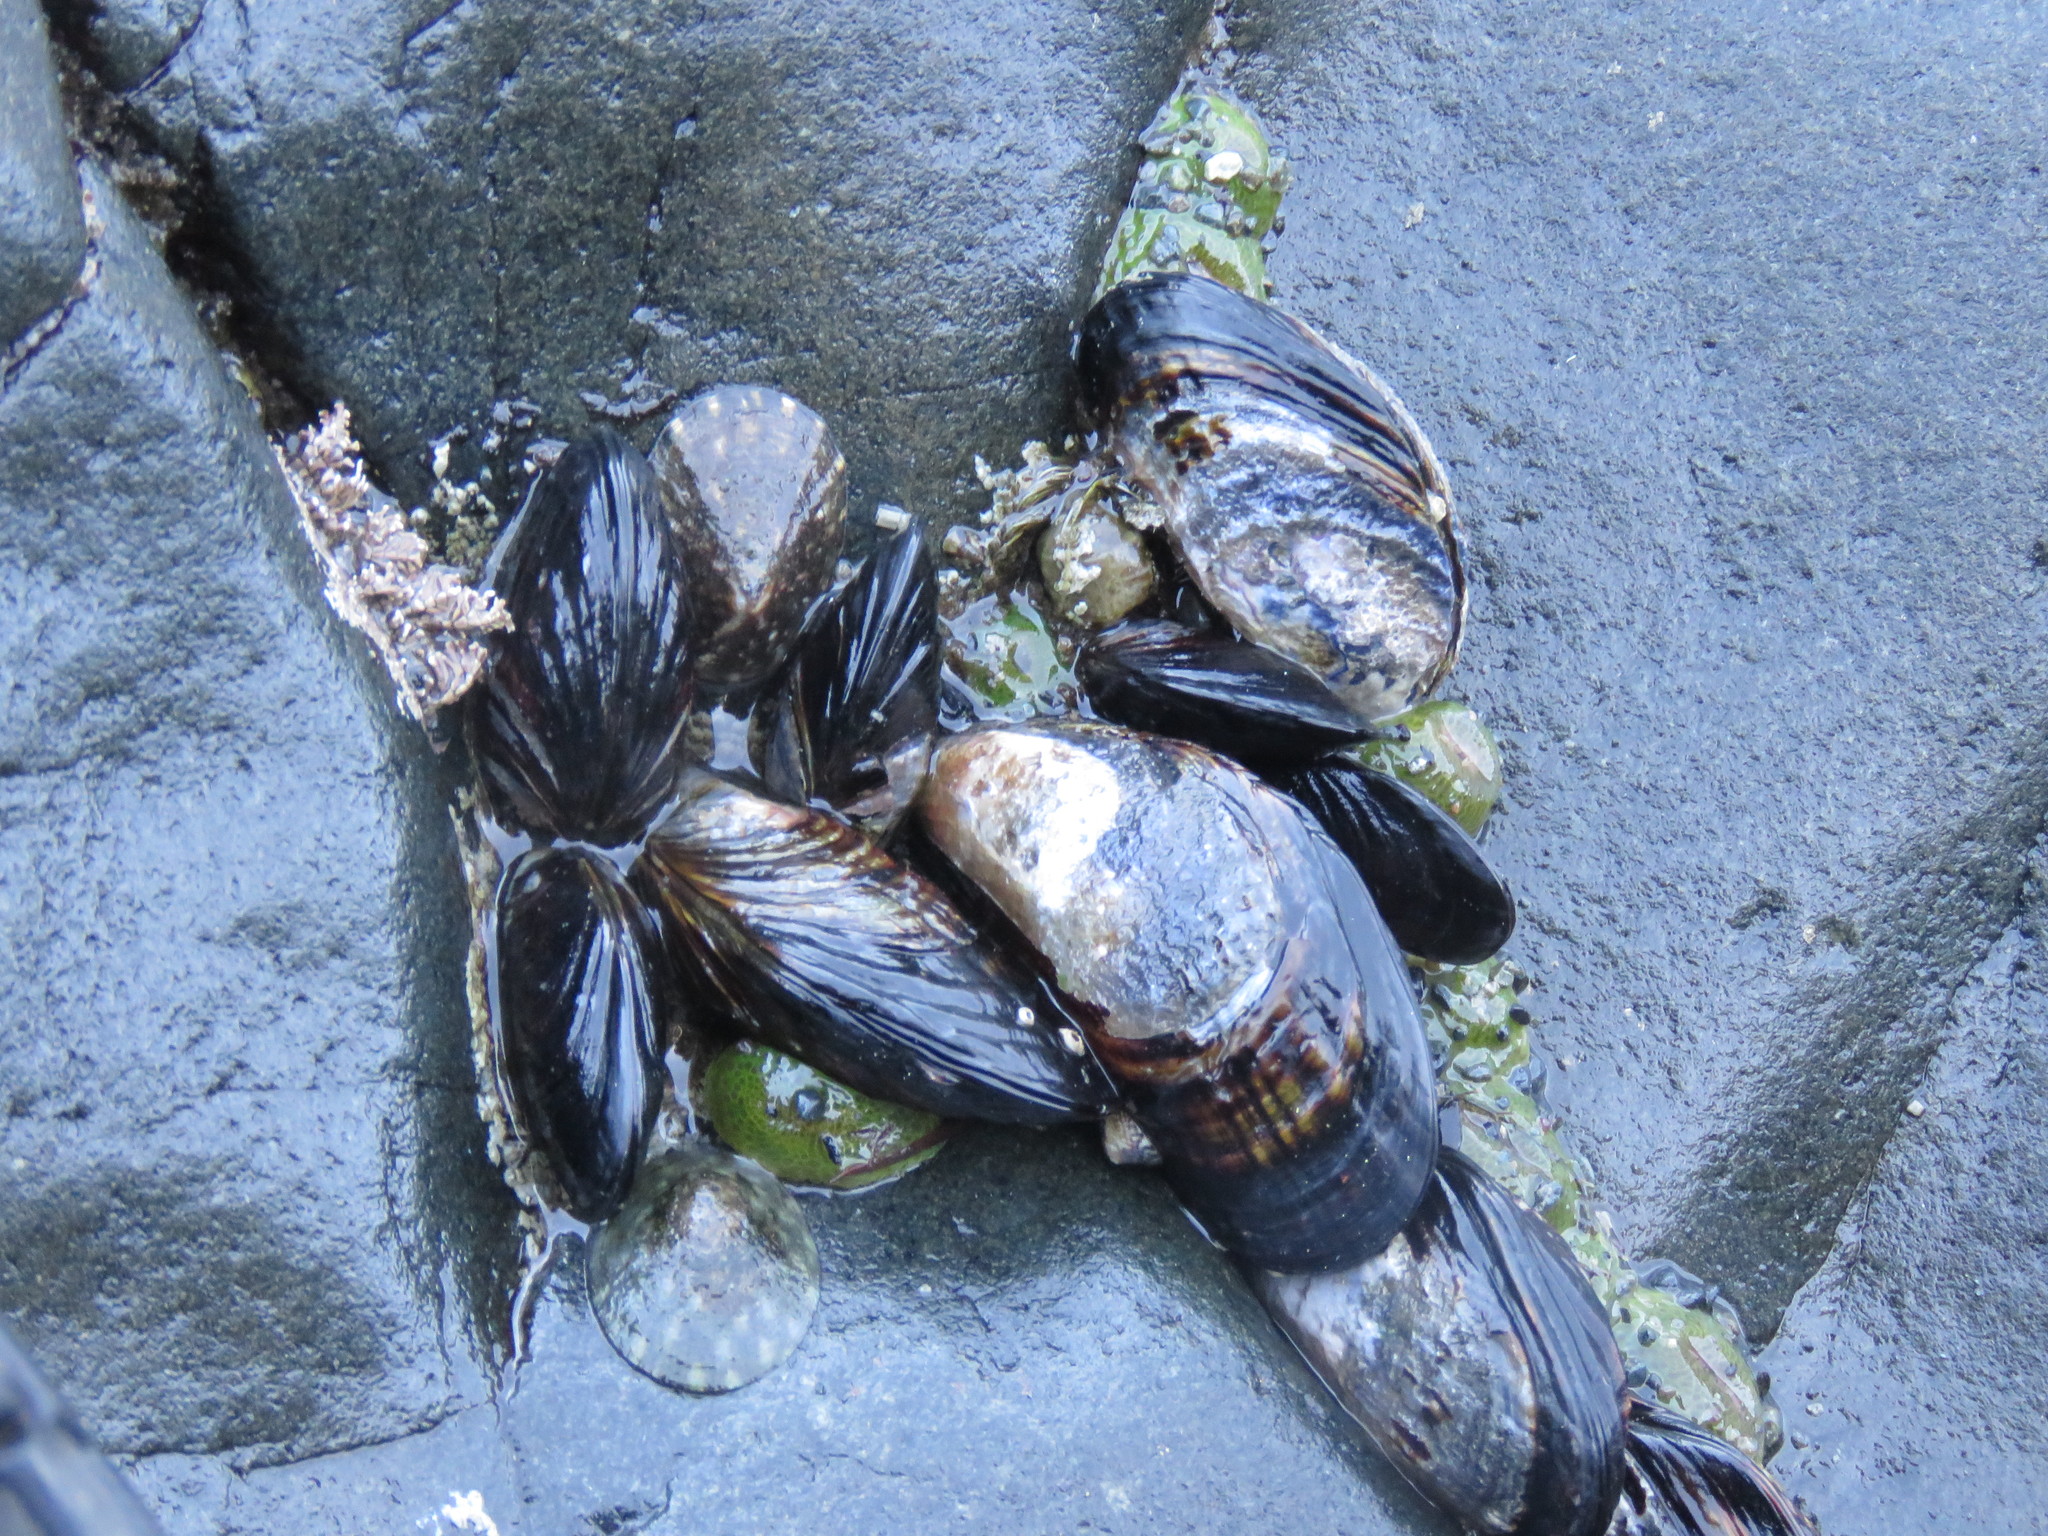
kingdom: Animalia
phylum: Mollusca
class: Bivalvia
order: Mytilida
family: Mytilidae
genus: Mytilus
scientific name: Mytilus californianus
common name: California mussel
